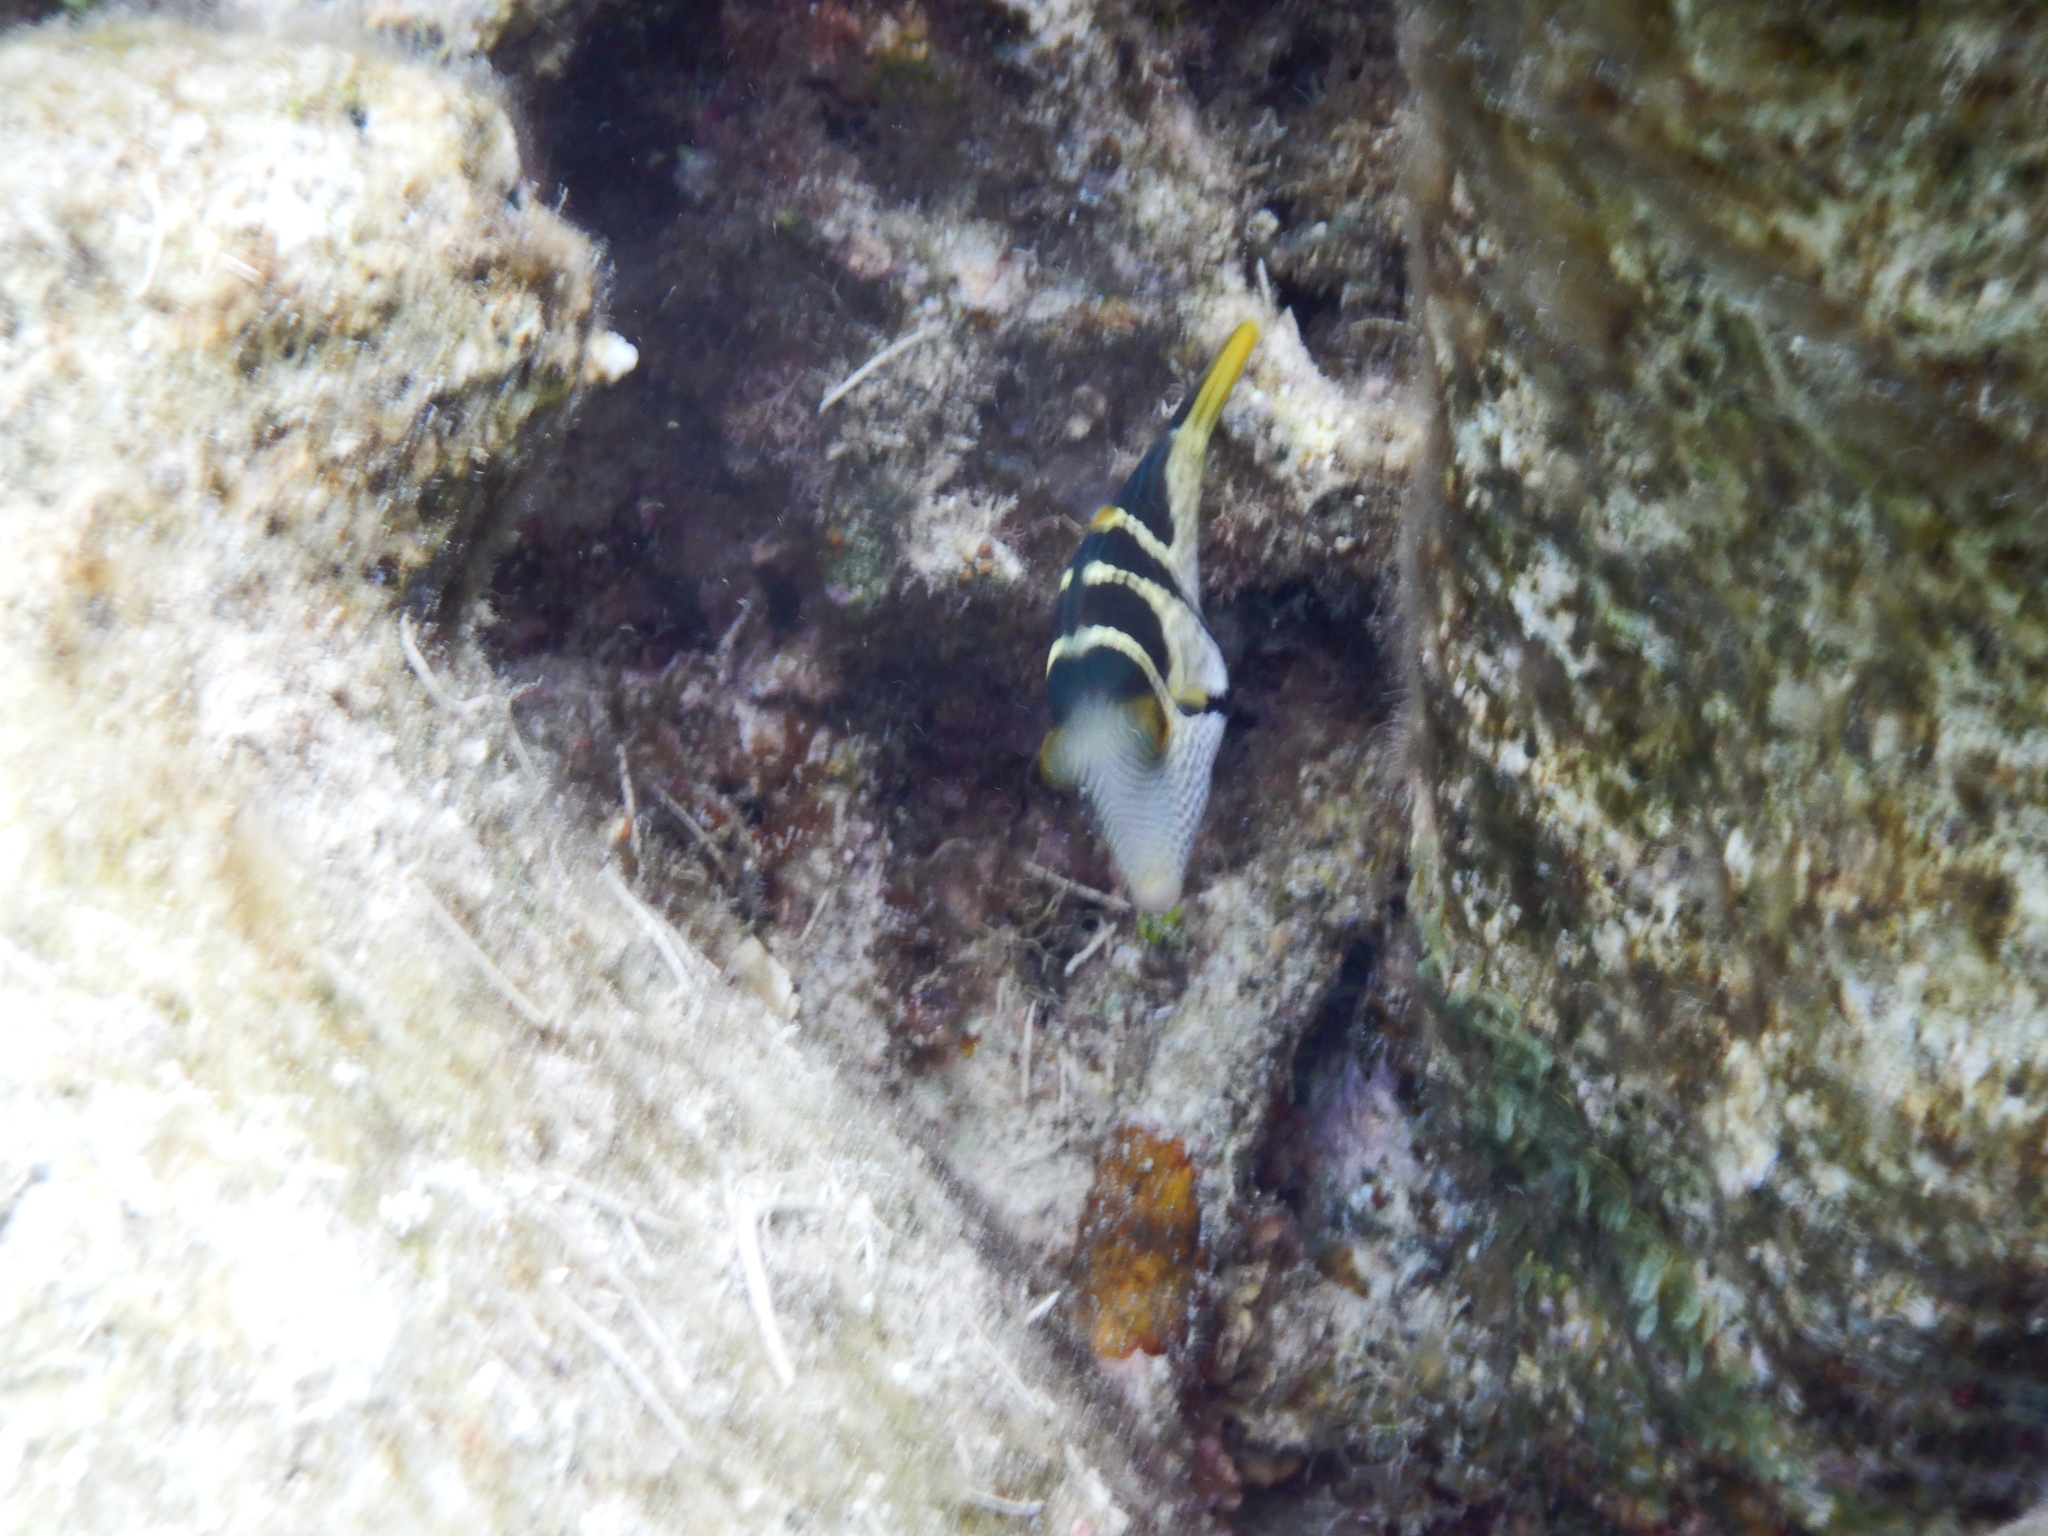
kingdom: Animalia
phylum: Chordata
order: Tetraodontiformes
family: Tetraodontidae
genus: Canthigaster
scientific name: Canthigaster valentini
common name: Banded toby
